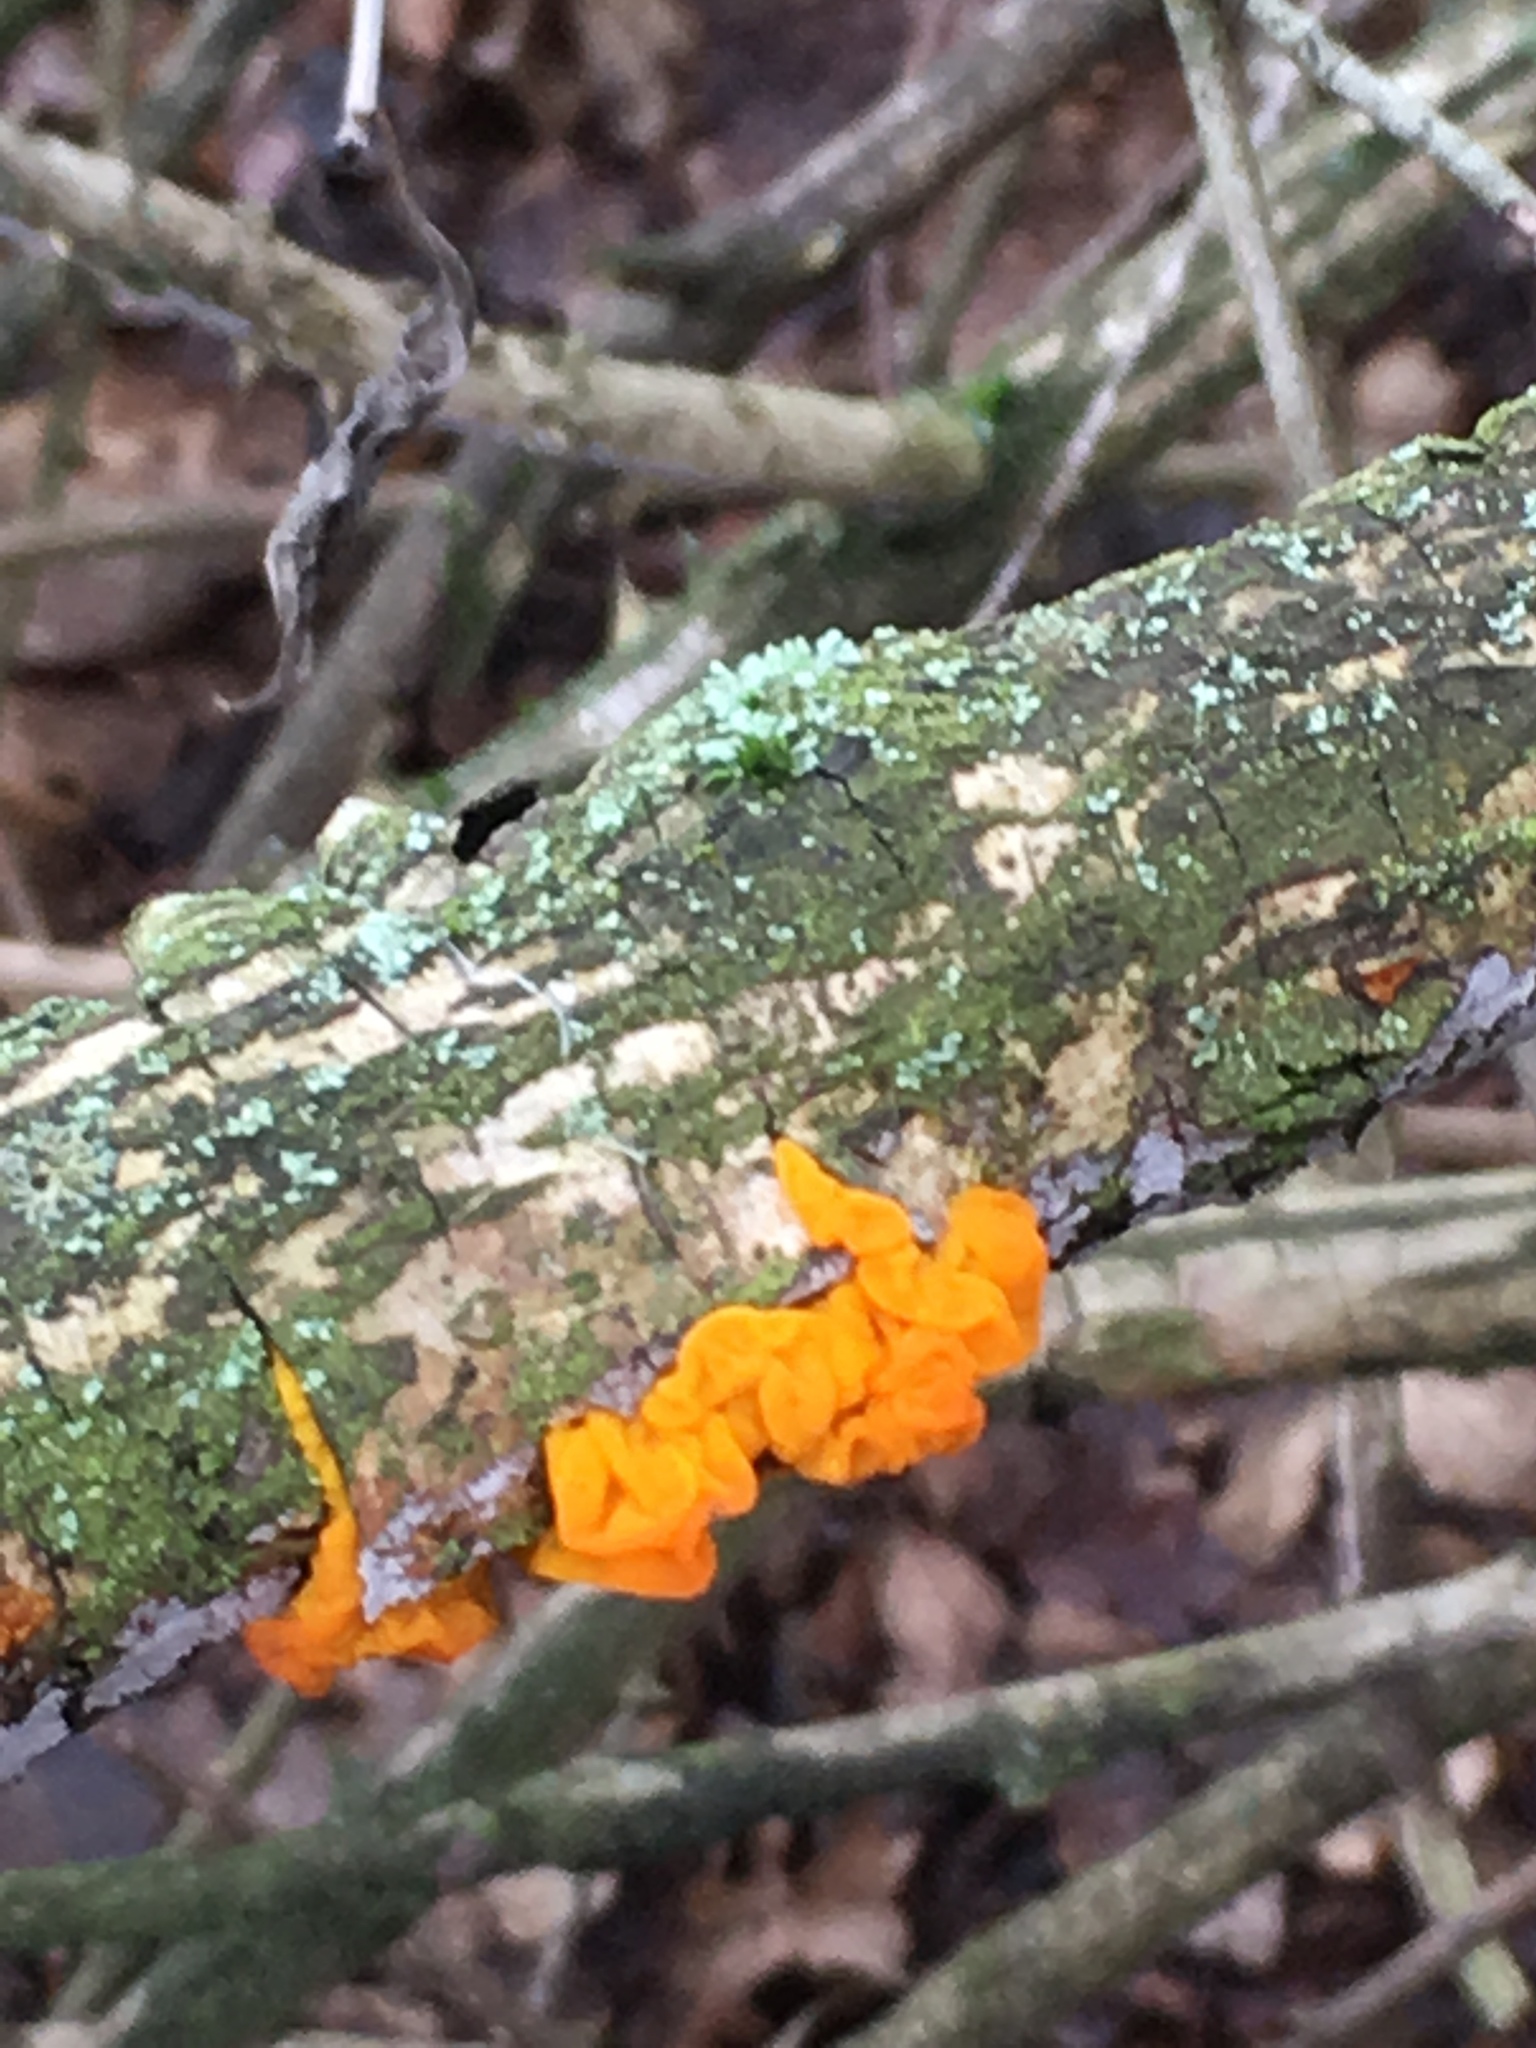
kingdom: Fungi
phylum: Basidiomycota
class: Tremellomycetes
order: Tremellales
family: Tremellaceae
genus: Tremella
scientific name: Tremella mesenterica
